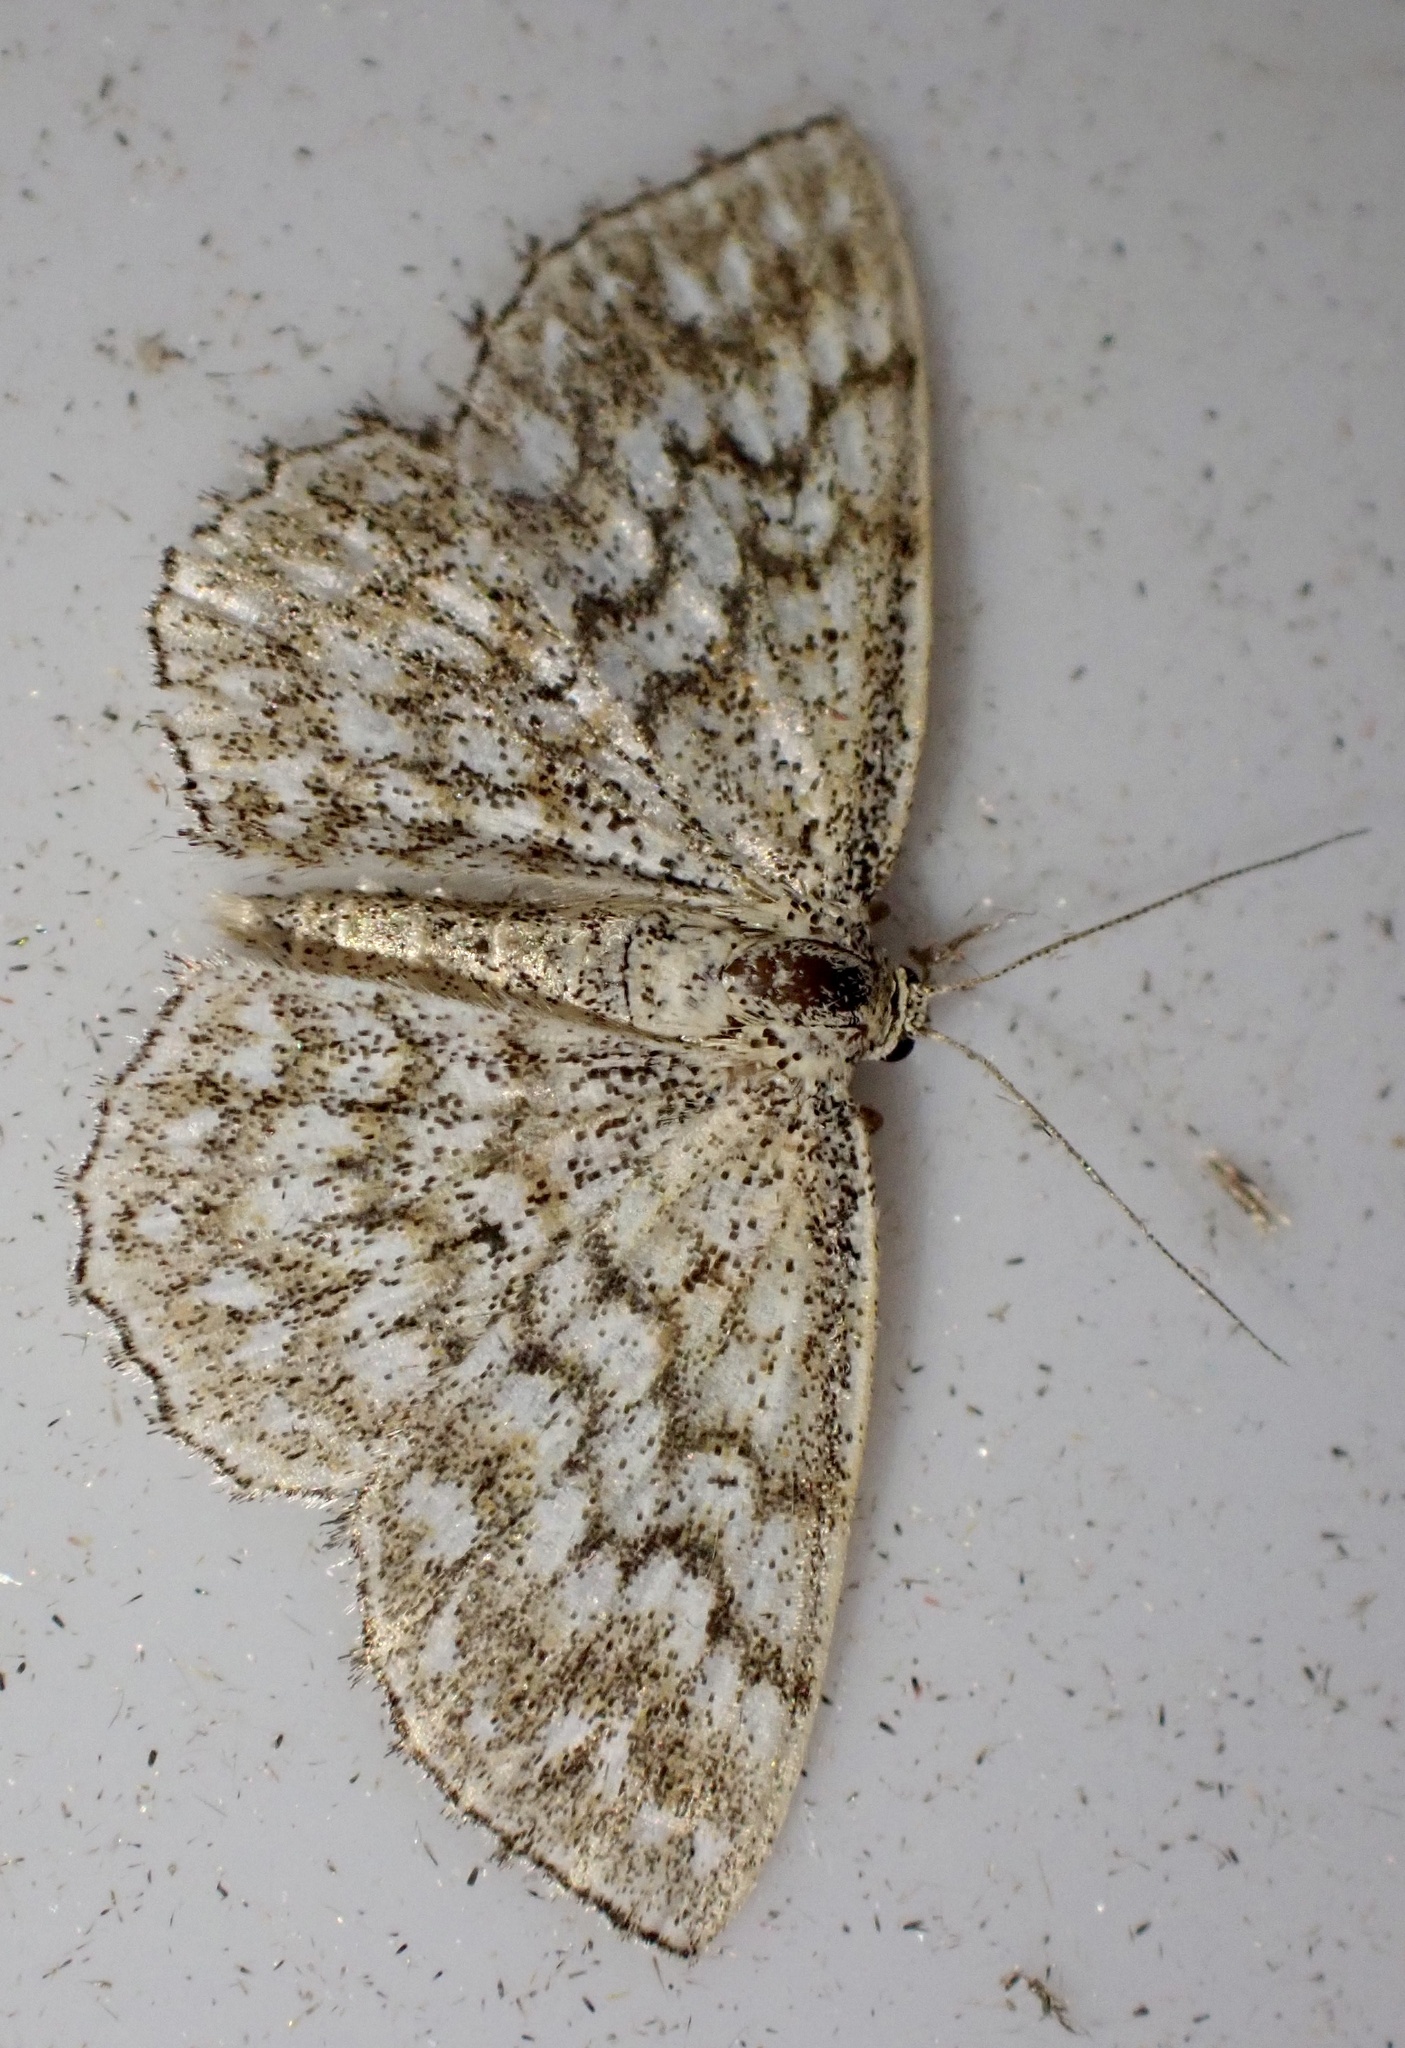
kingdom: Animalia
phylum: Arthropoda
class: Insecta
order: Lepidoptera
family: Geometridae
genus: Scopula
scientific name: Scopula tessellaria
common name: Dusky-brown wave
